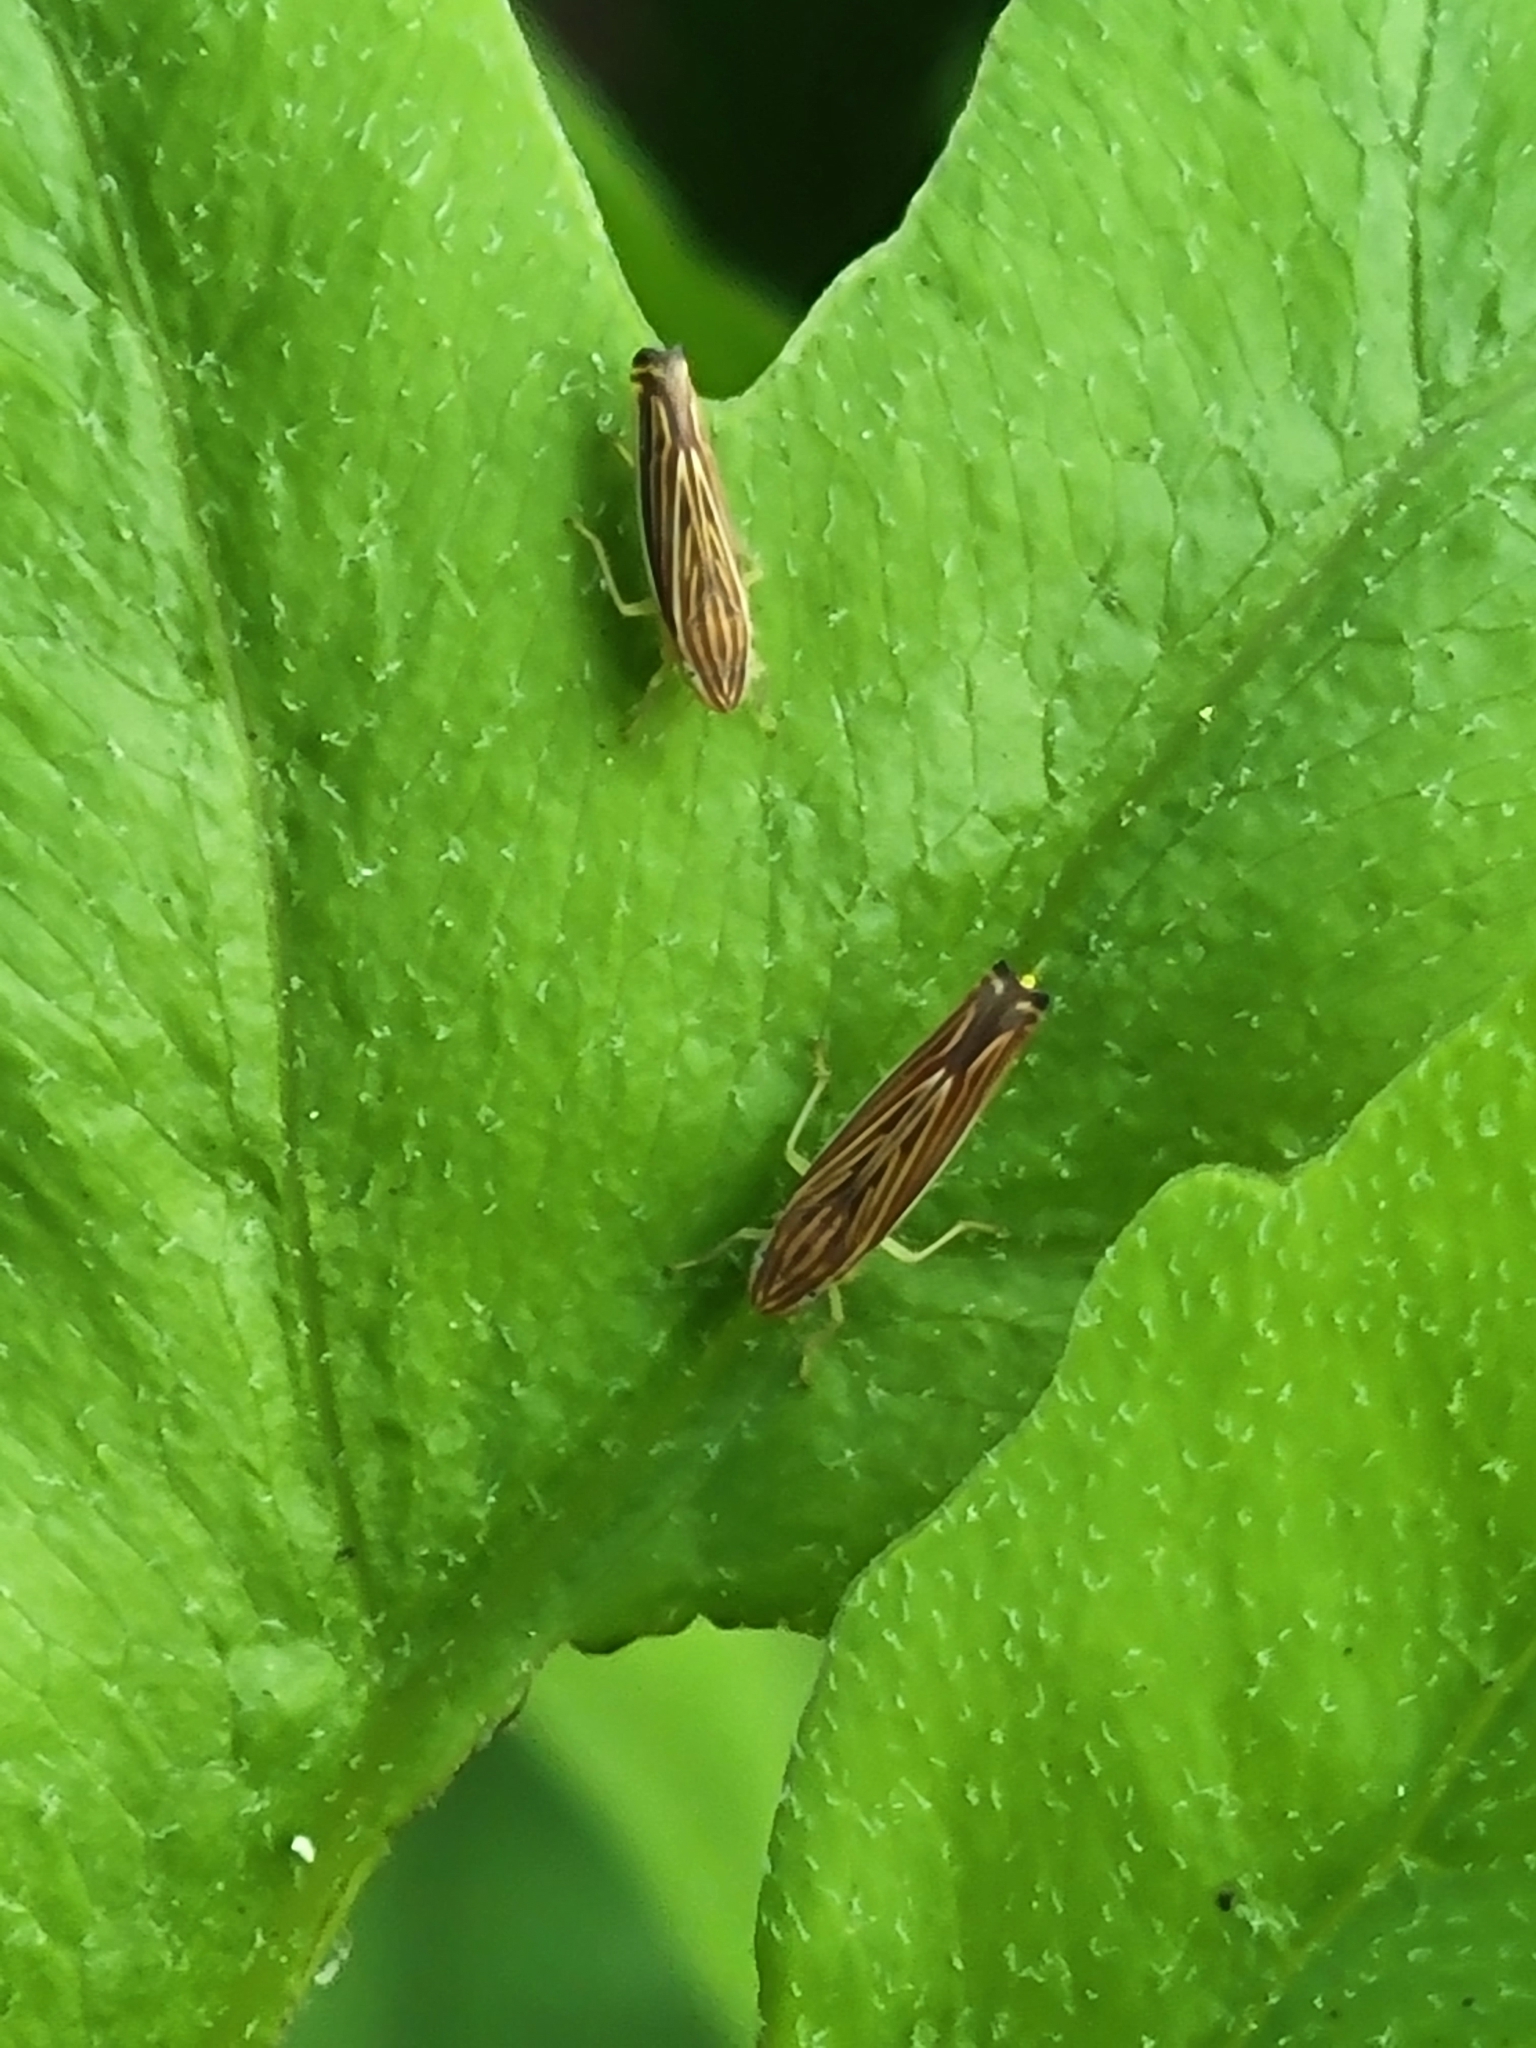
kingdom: Animalia
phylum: Arthropoda
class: Insecta
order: Hemiptera
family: Cicadellidae
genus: Sibovia
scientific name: Sibovia occatoria
